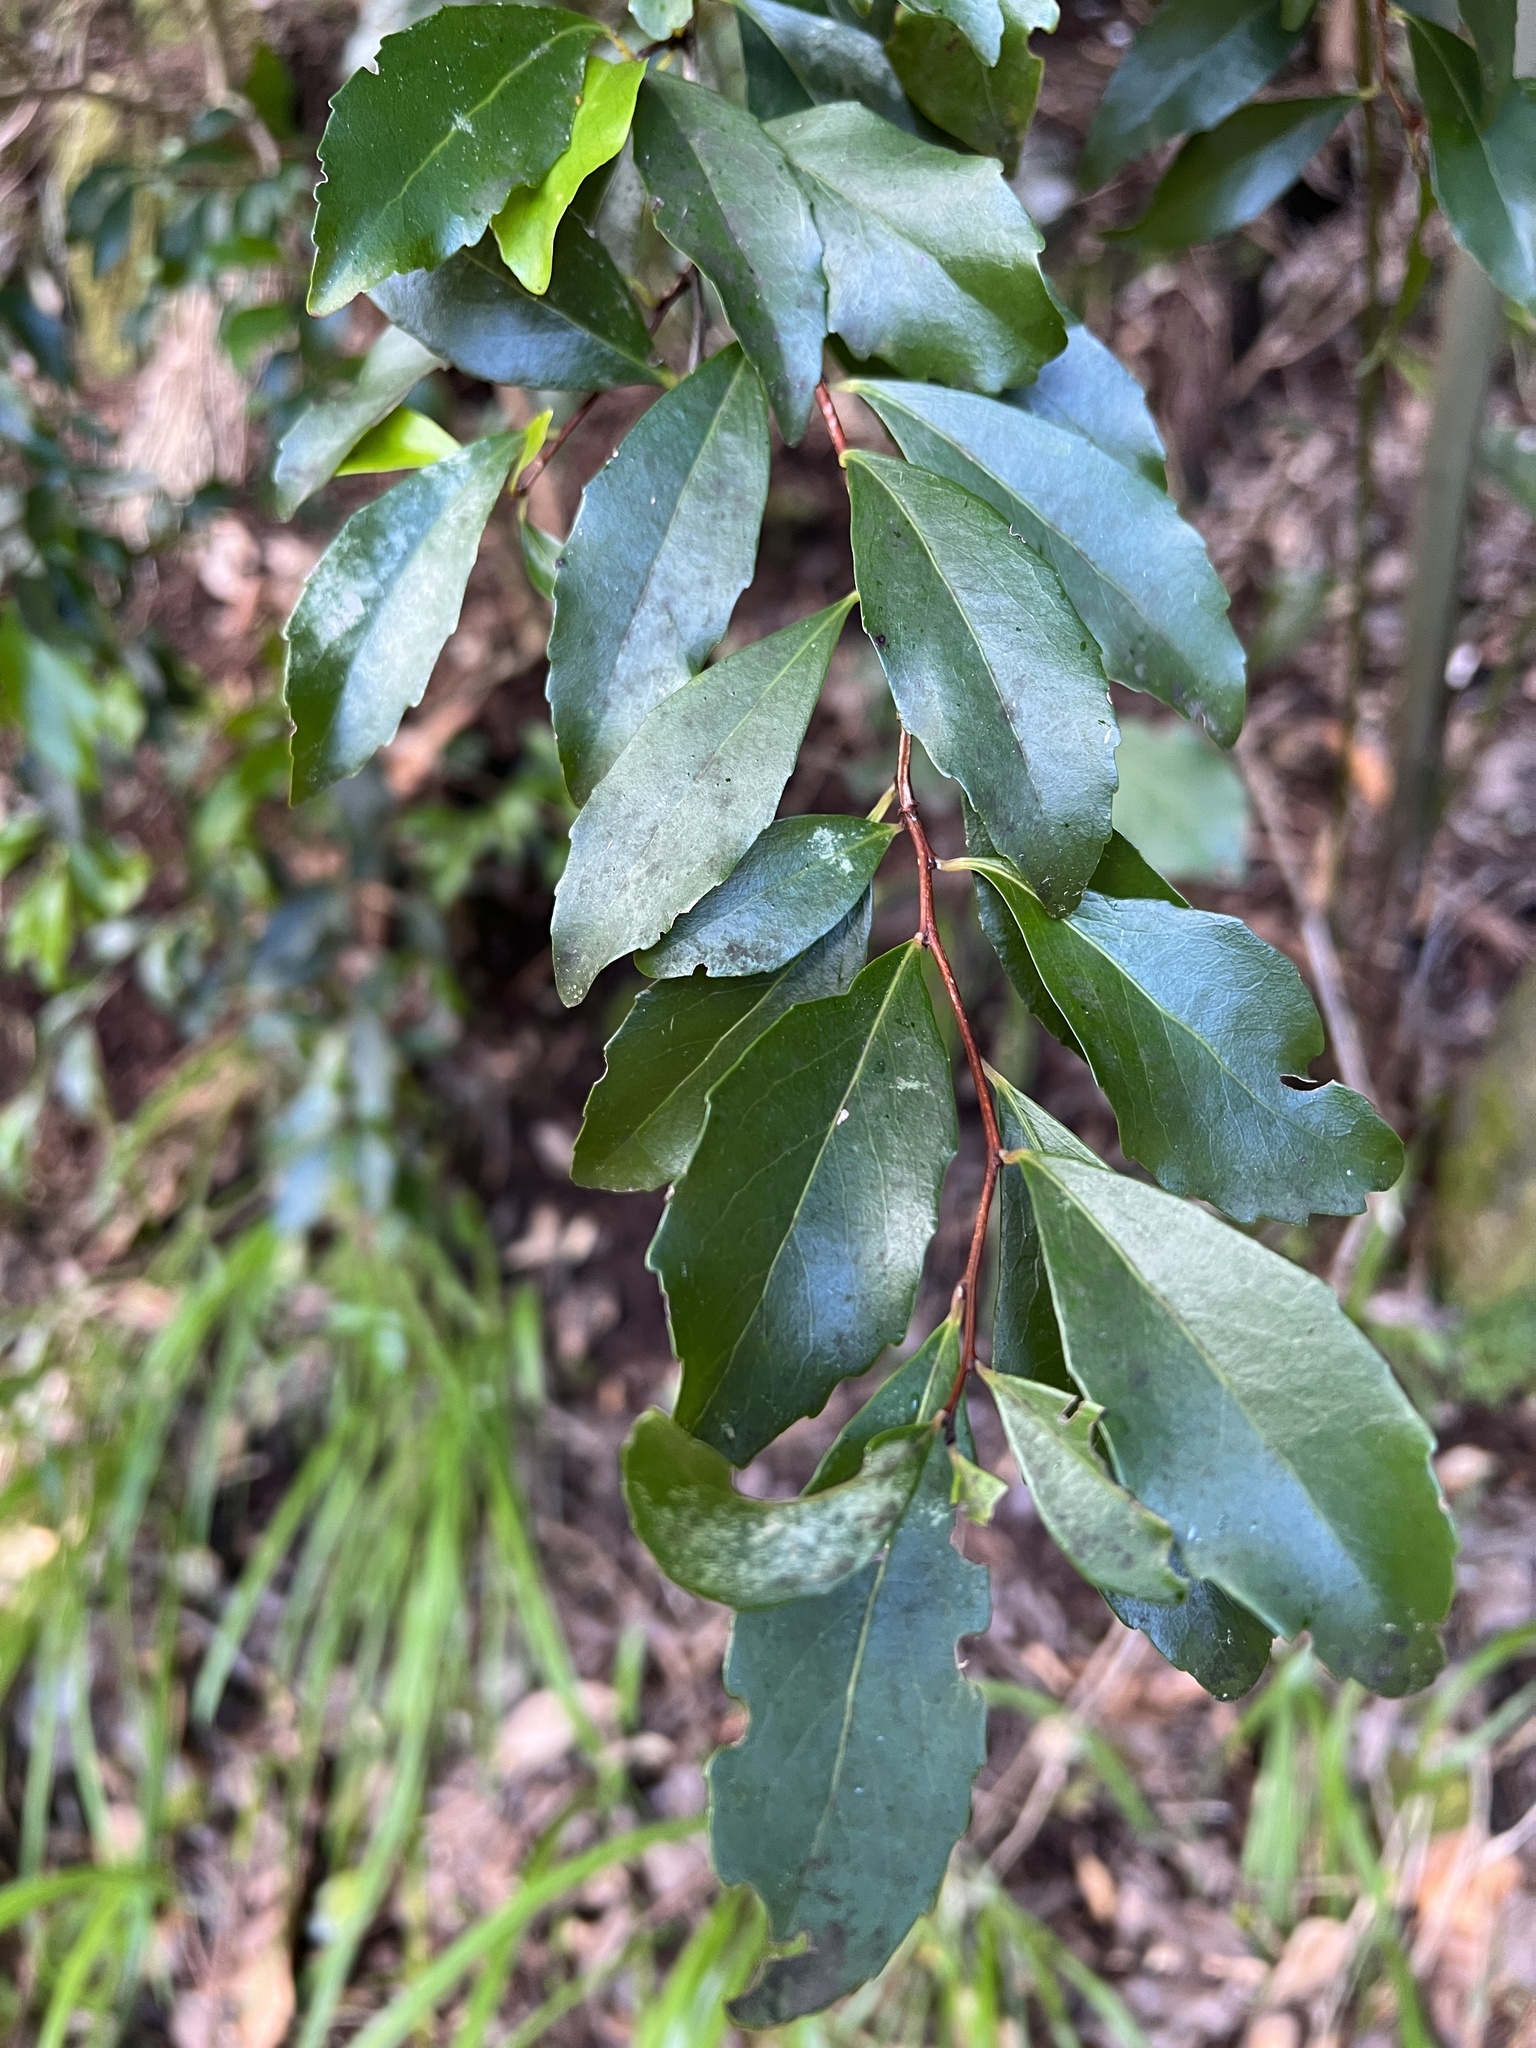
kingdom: Plantae
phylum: Tracheophyta
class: Magnoliopsida
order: Celastrales
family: Celastraceae
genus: Gymnosporia
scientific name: Gymnosporia dryandri
